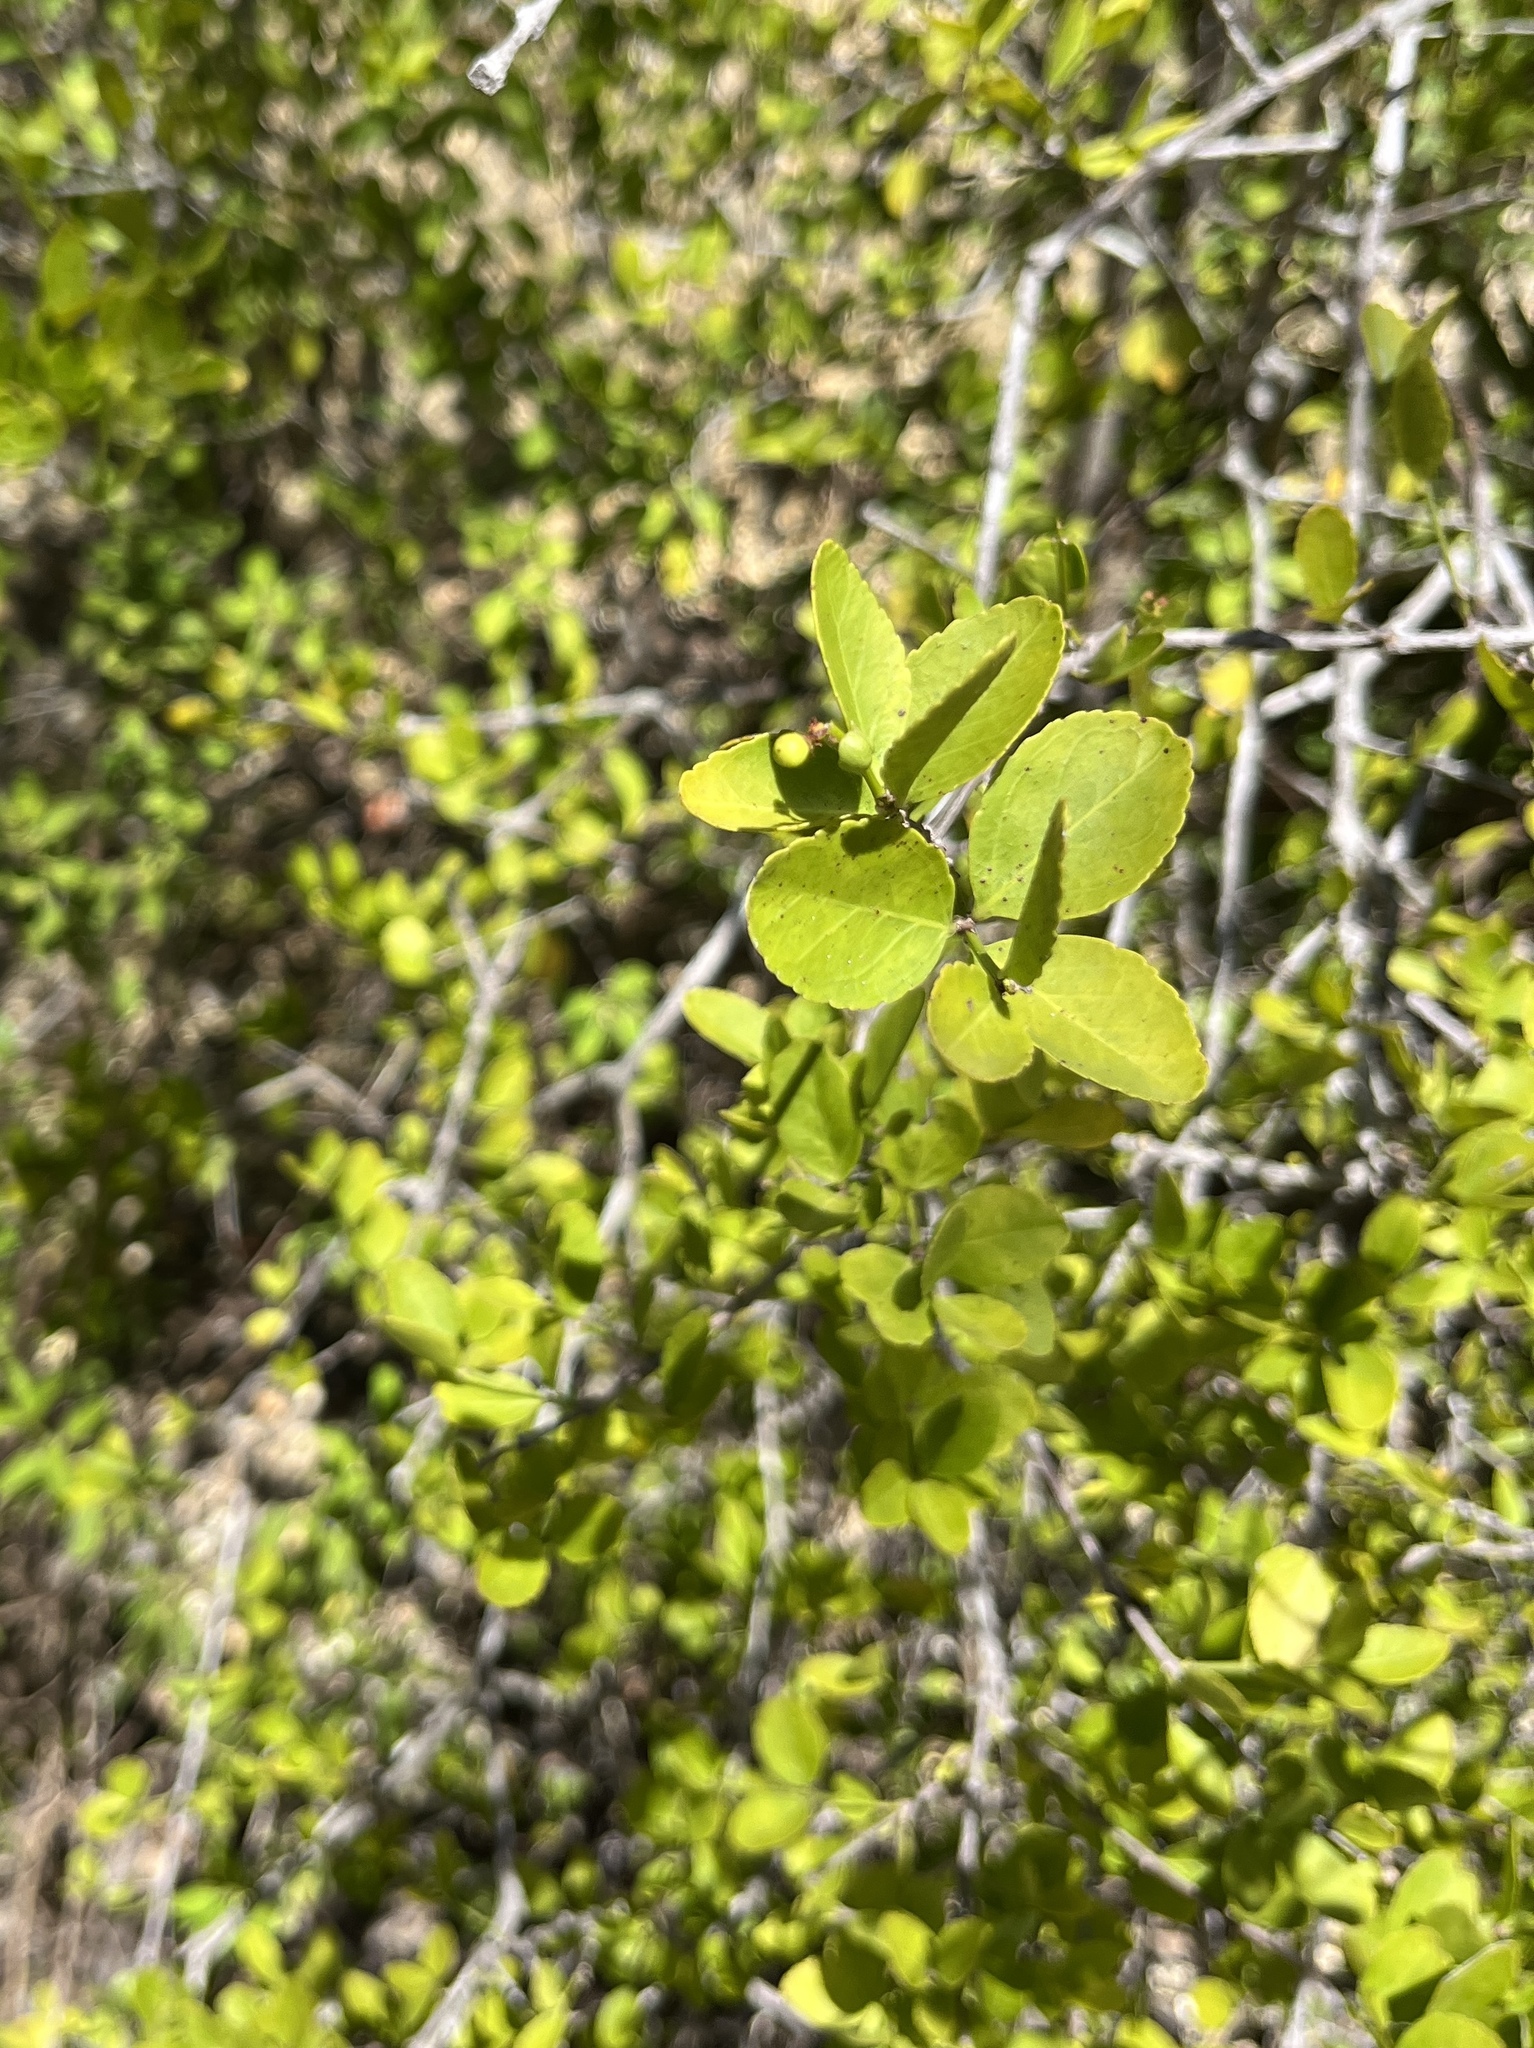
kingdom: Plantae
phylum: Tracheophyta
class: Magnoliopsida
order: Celastrales
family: Celastraceae
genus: Crossopetalum
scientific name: Crossopetalum rhacoma
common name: Maidenberry
